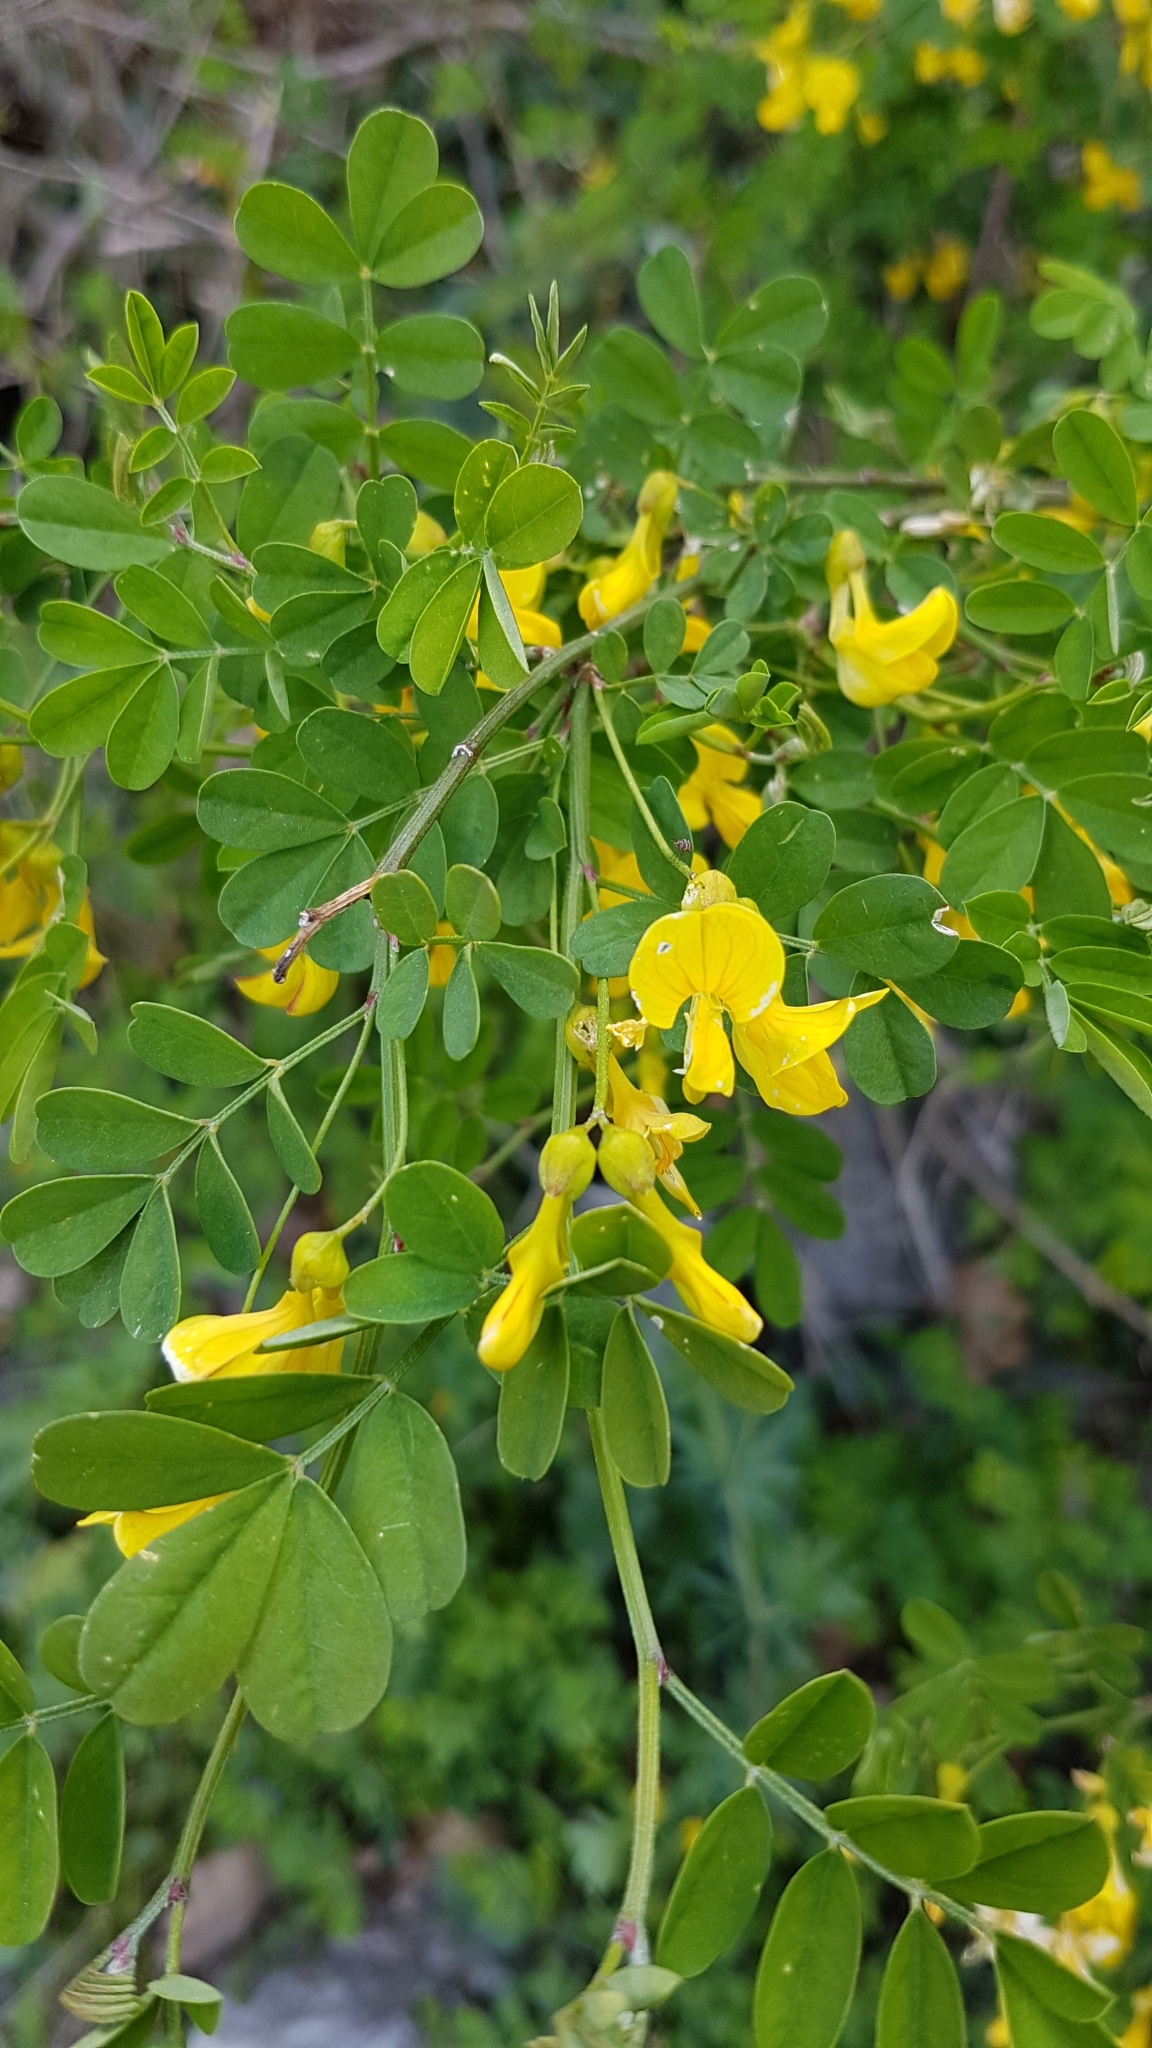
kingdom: Plantae
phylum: Tracheophyta
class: Magnoliopsida
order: Fabales
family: Fabaceae
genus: Hippocrepis
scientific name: Hippocrepis emerus
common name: Scorpion senna
